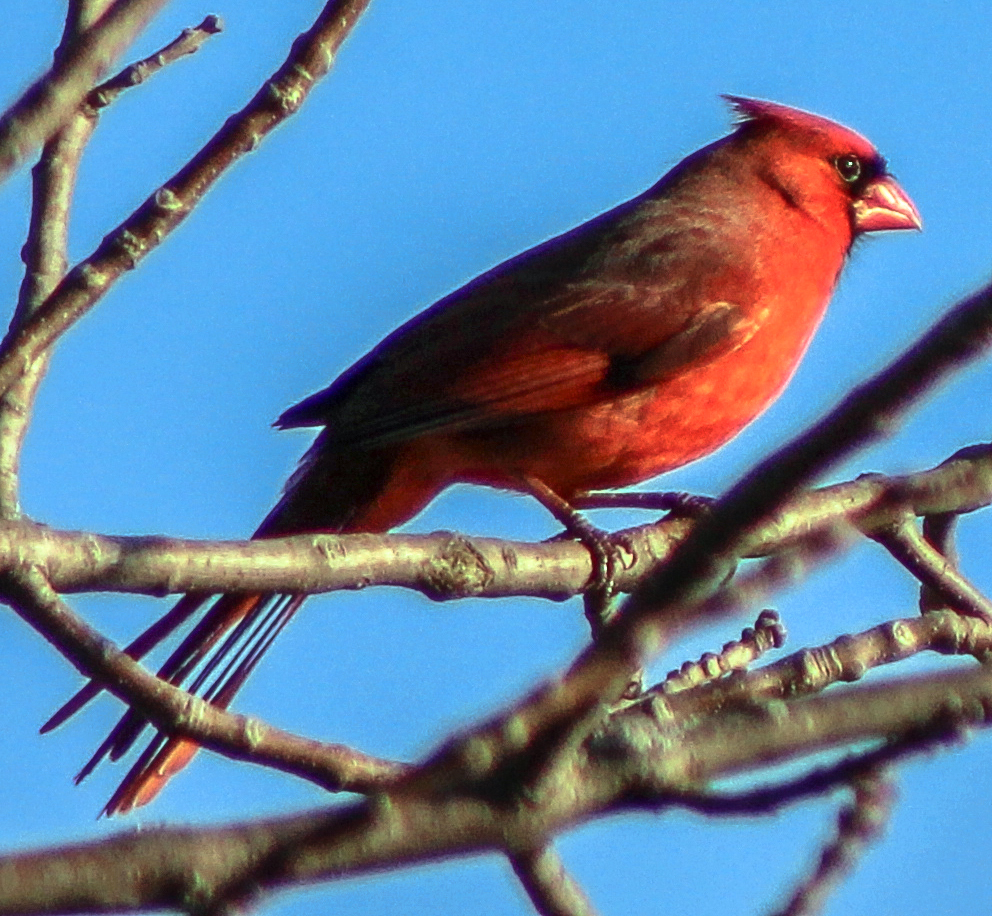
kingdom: Animalia
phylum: Chordata
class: Aves
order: Passeriformes
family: Cardinalidae
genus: Cardinalis
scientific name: Cardinalis cardinalis
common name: Northern cardinal
